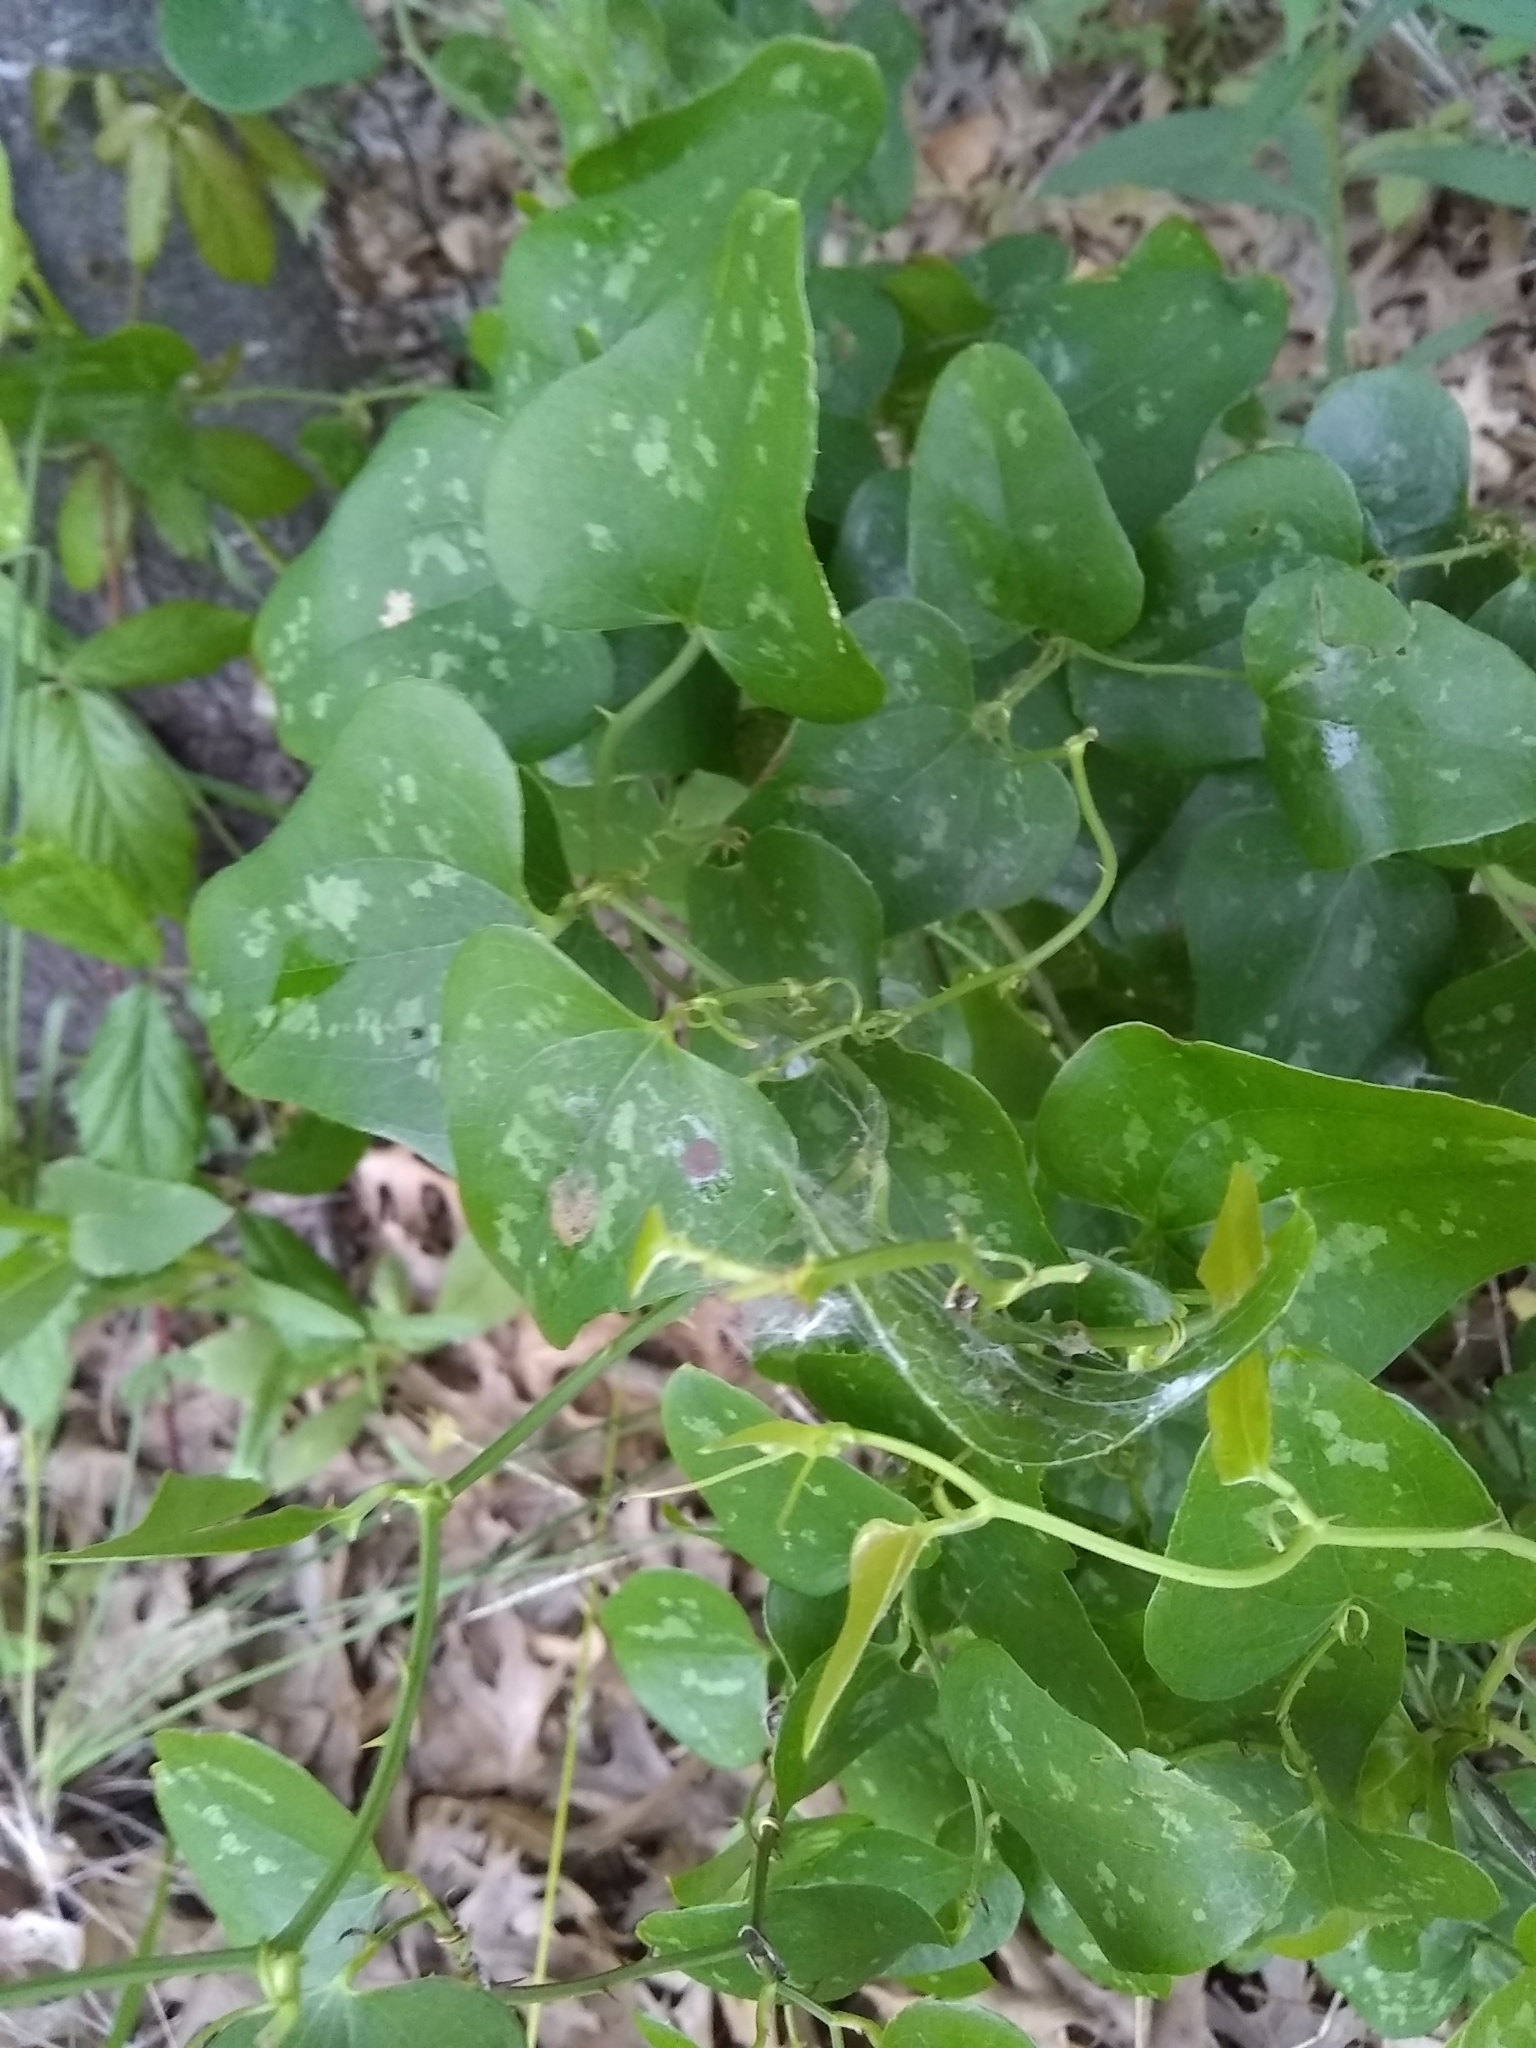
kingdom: Plantae
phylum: Tracheophyta
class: Liliopsida
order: Liliales
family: Smilacaceae
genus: Smilax
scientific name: Smilax bona-nox
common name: Catbrier
